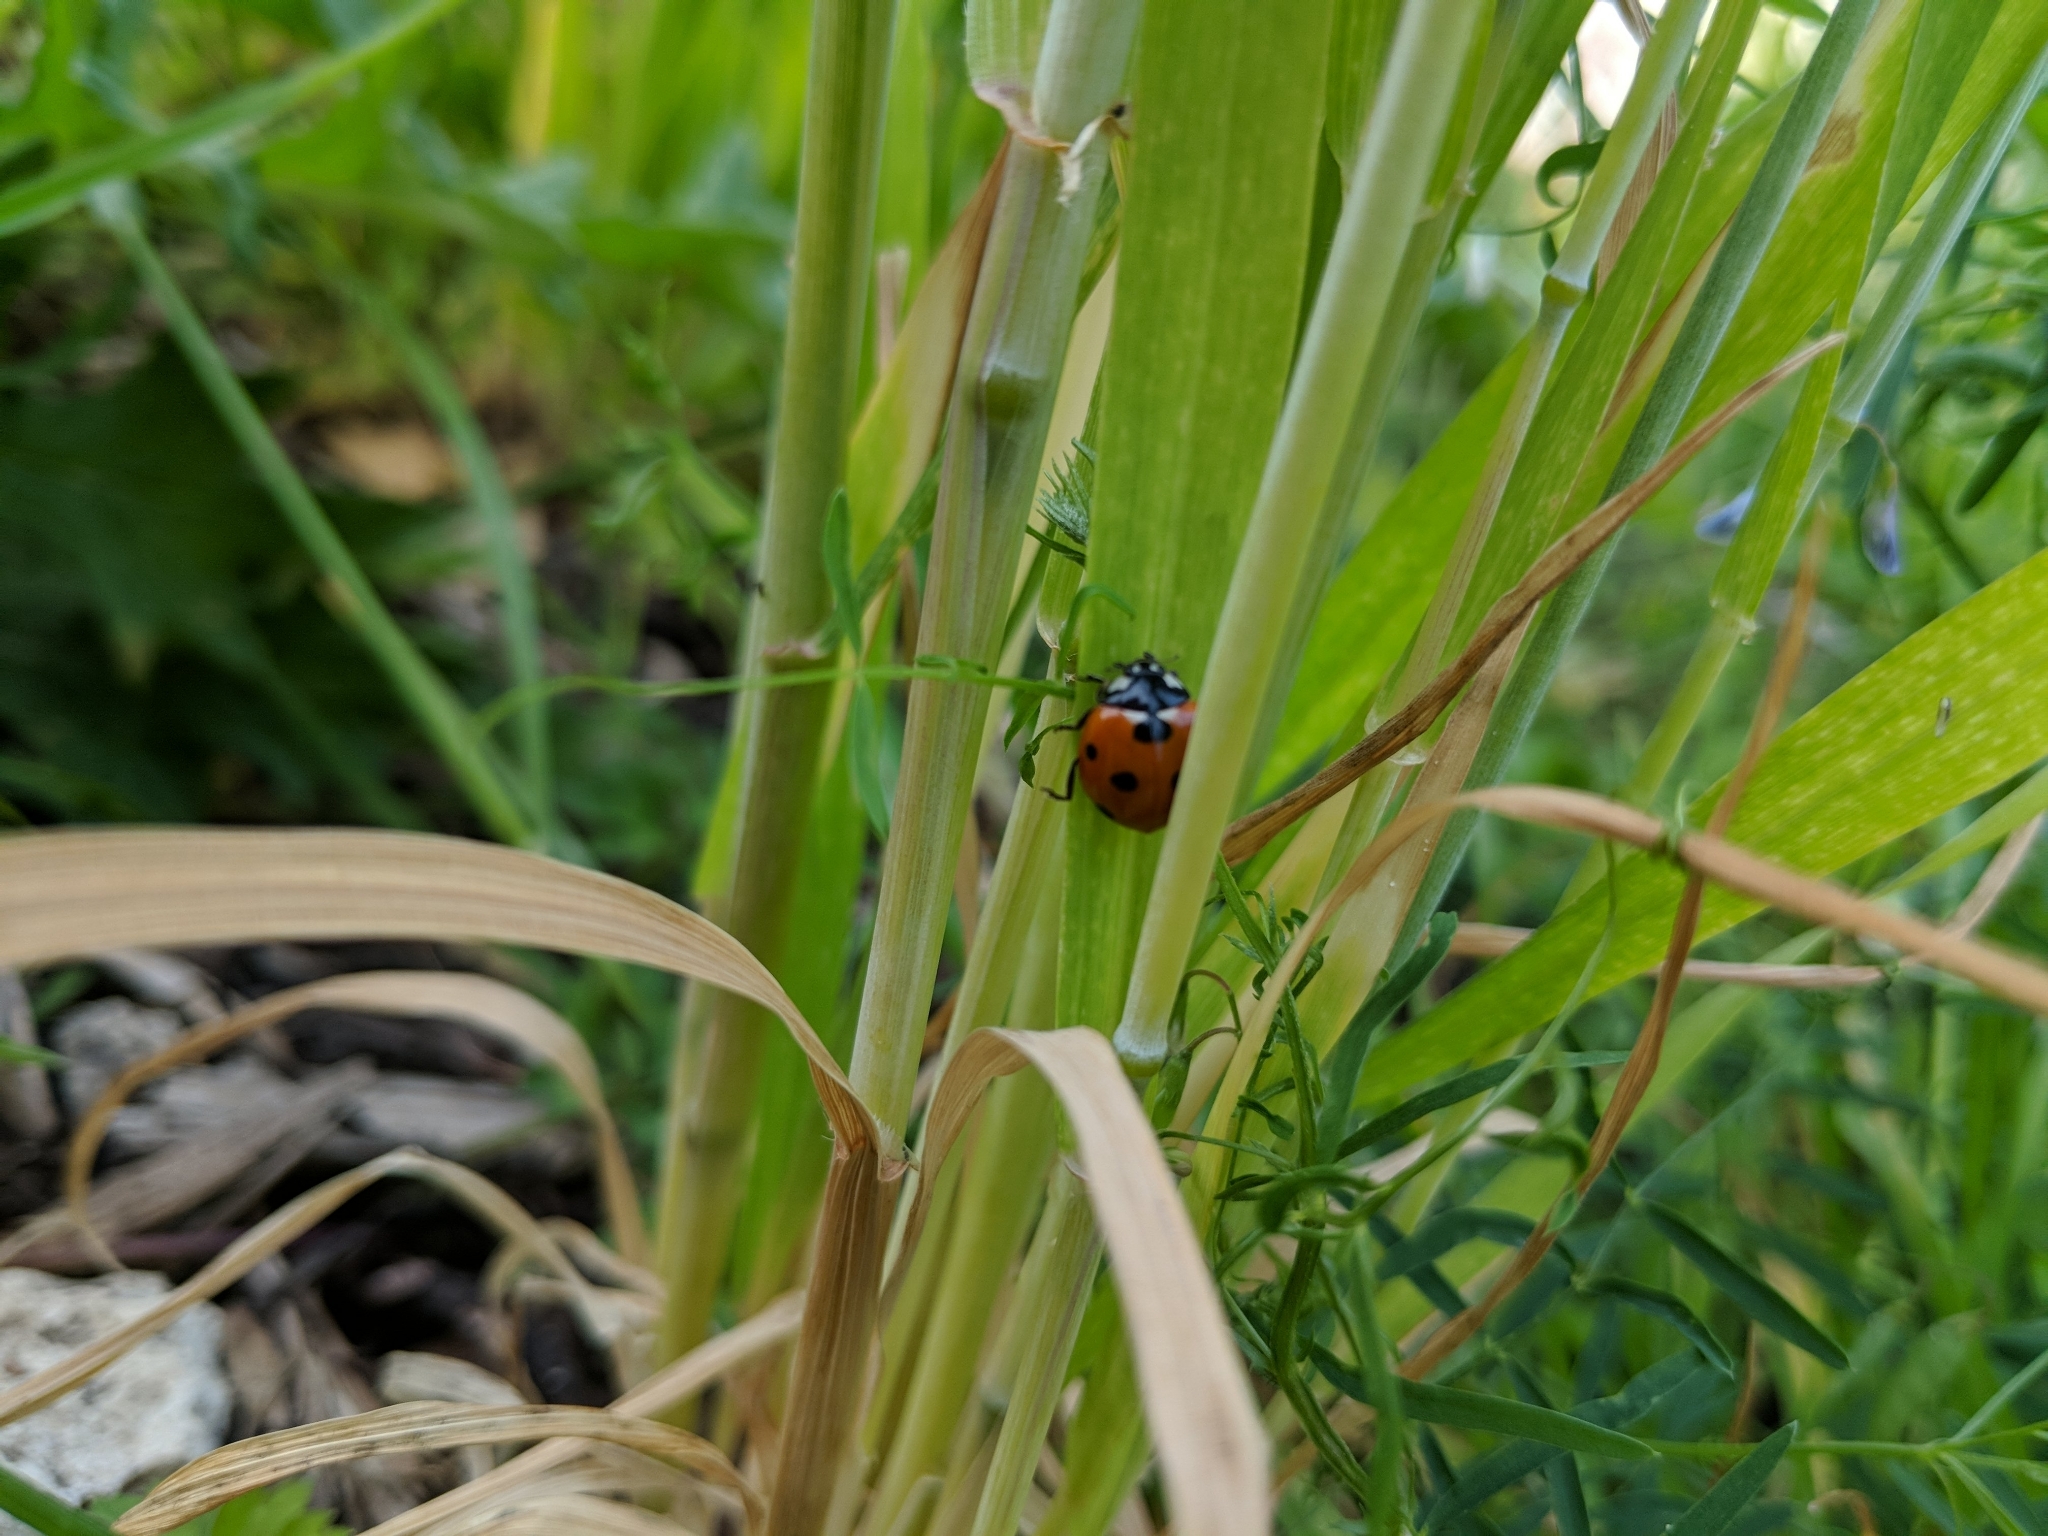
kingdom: Animalia
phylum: Arthropoda
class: Insecta
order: Coleoptera
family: Coccinellidae
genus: Coccinella
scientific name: Coccinella septempunctata
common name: Sevenspotted lady beetle
